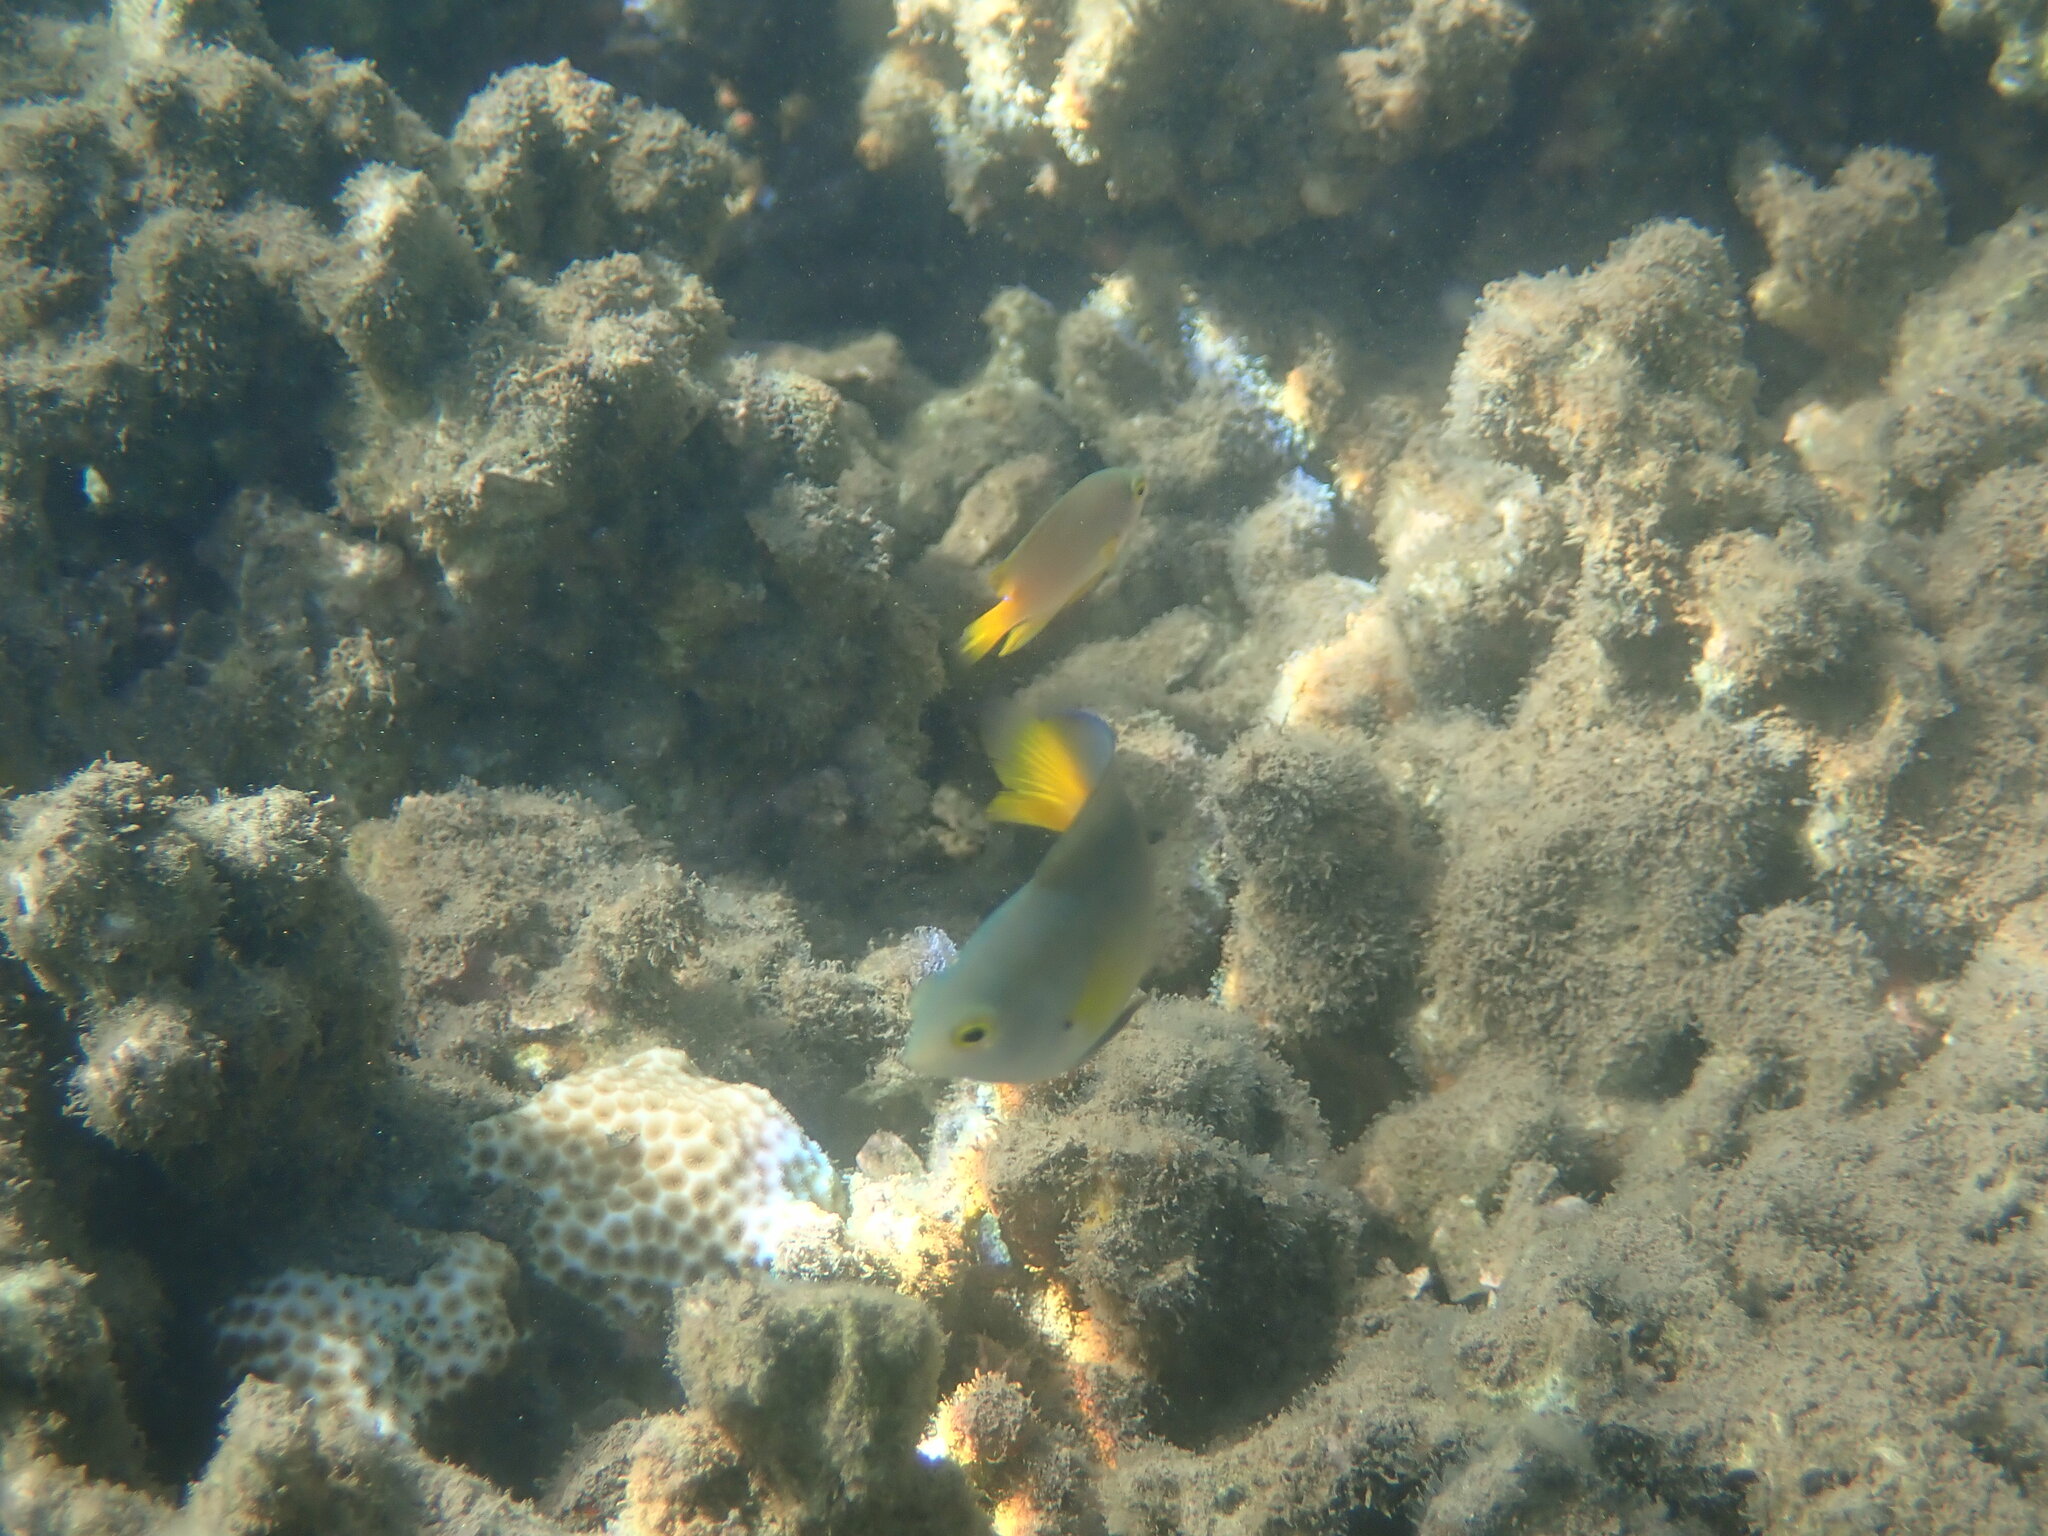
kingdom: Animalia
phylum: Chordata
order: Perciformes
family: Pomacentridae
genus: Pomacentrus
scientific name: Pomacentrus maafu
